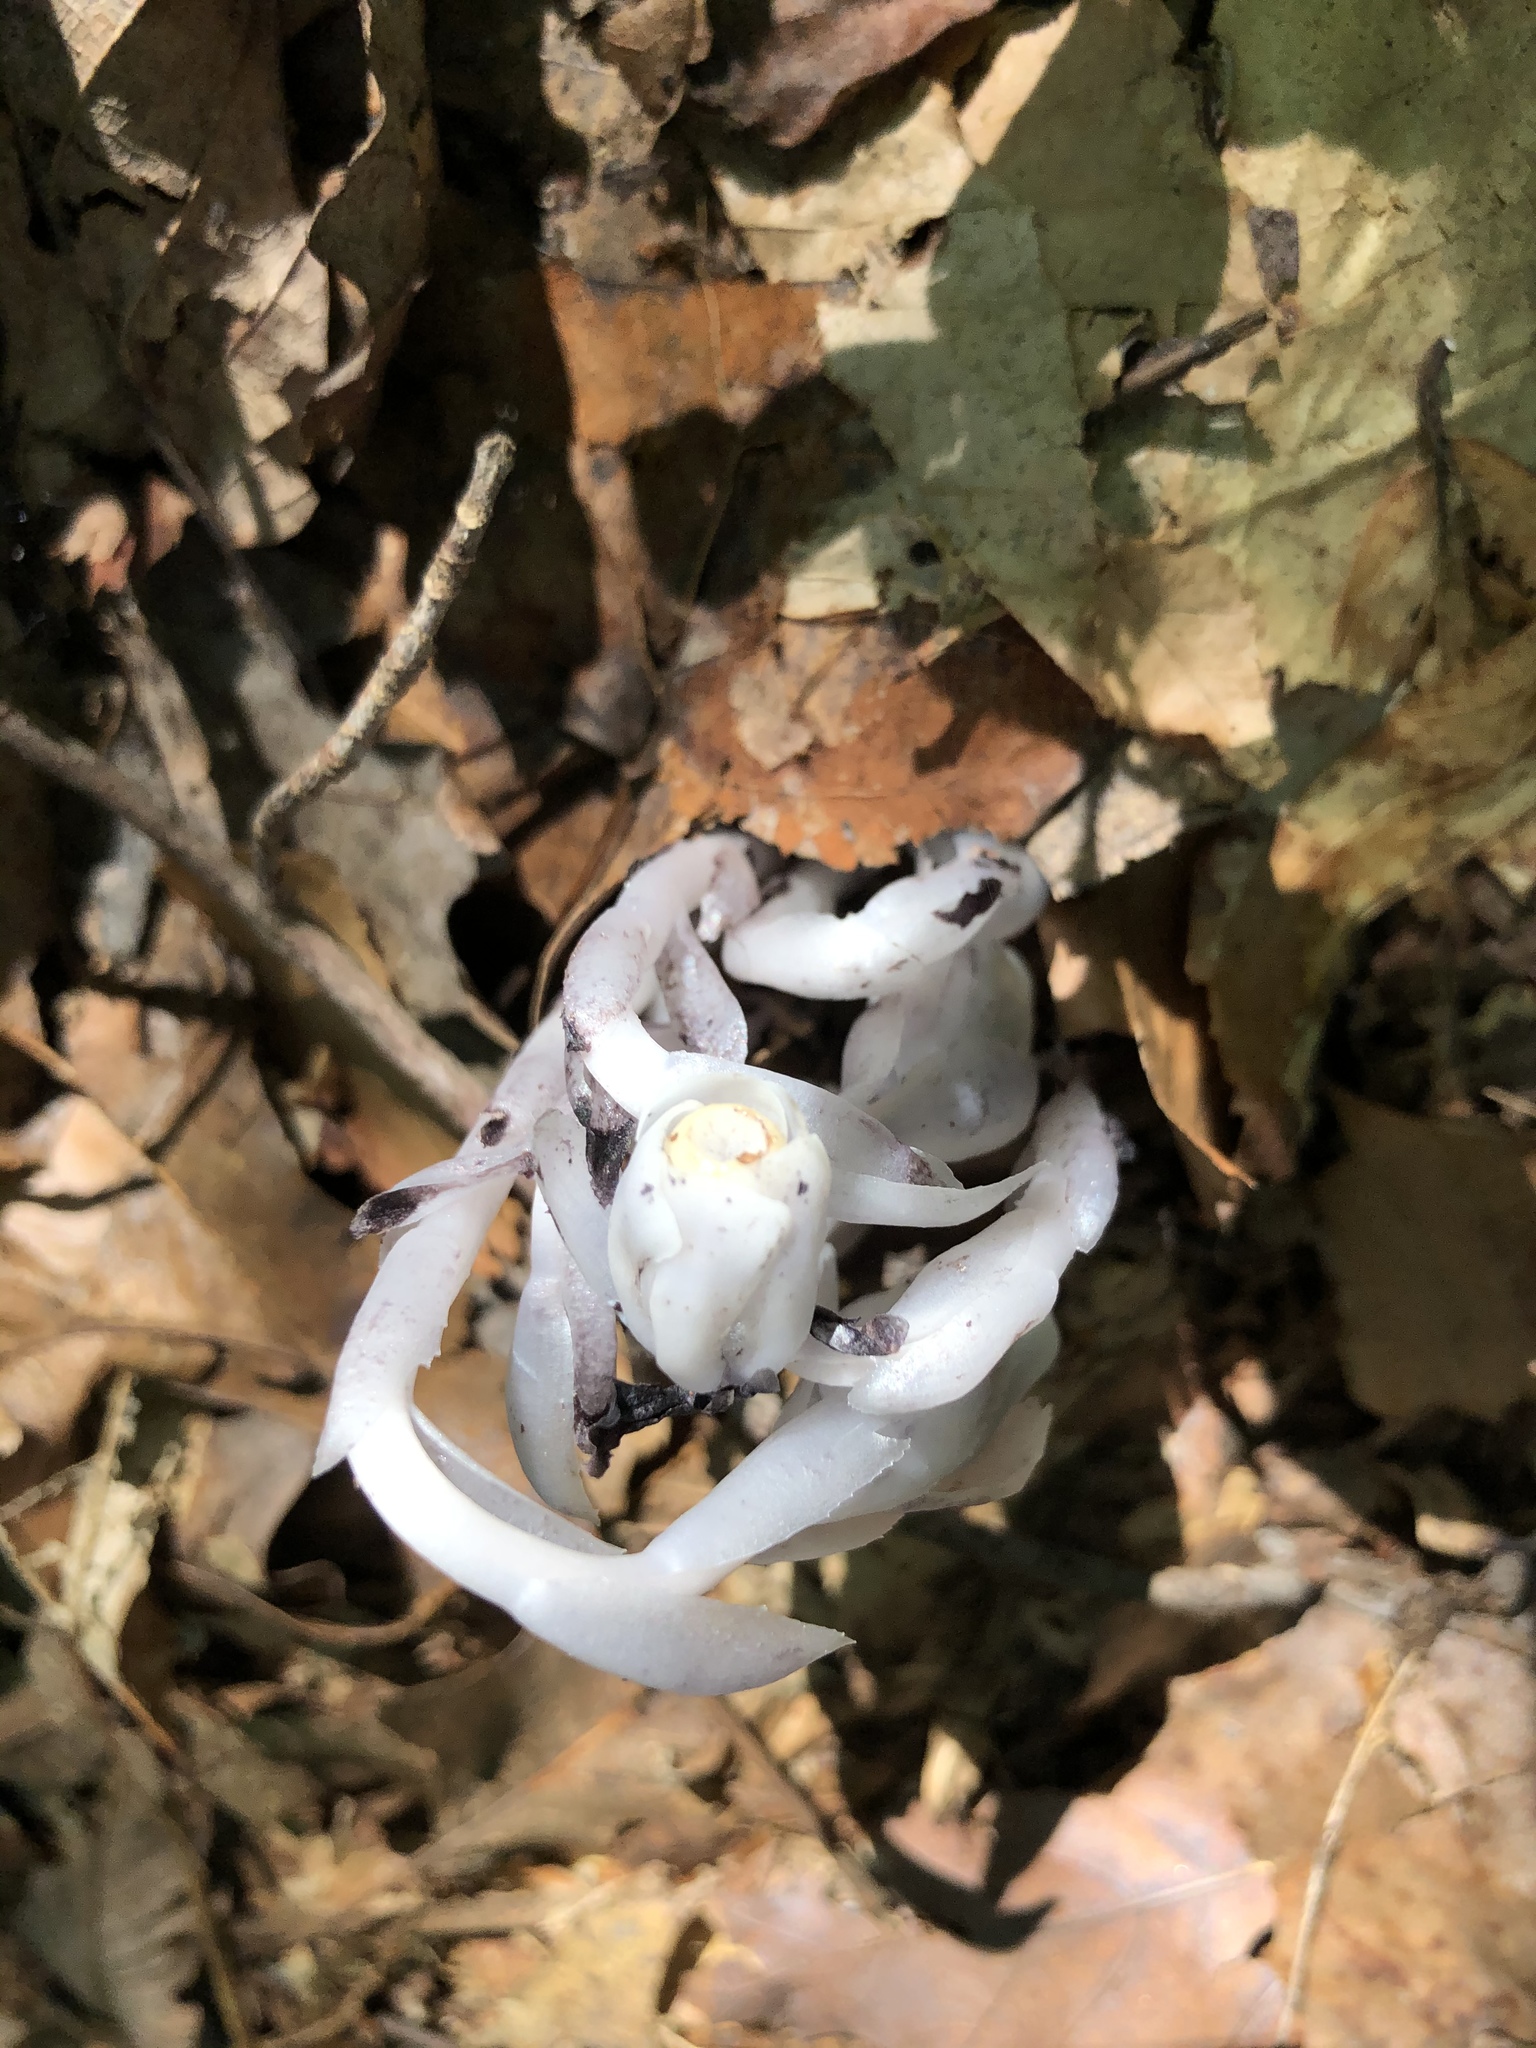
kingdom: Plantae
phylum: Tracheophyta
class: Magnoliopsida
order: Ericales
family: Ericaceae
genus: Monotropa
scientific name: Monotropa uniflora
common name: Convulsion root
